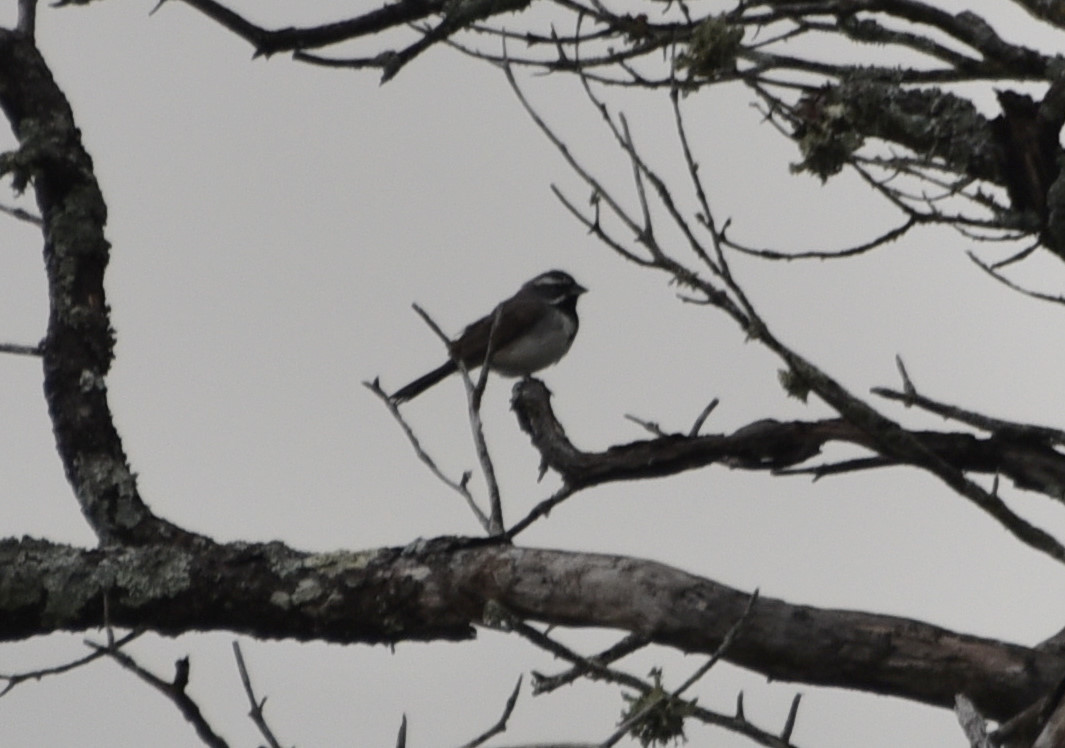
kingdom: Animalia
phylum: Chordata
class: Aves
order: Passeriformes
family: Passerellidae
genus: Amphispiza
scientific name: Amphispiza bilineata
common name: Black-throated sparrow
